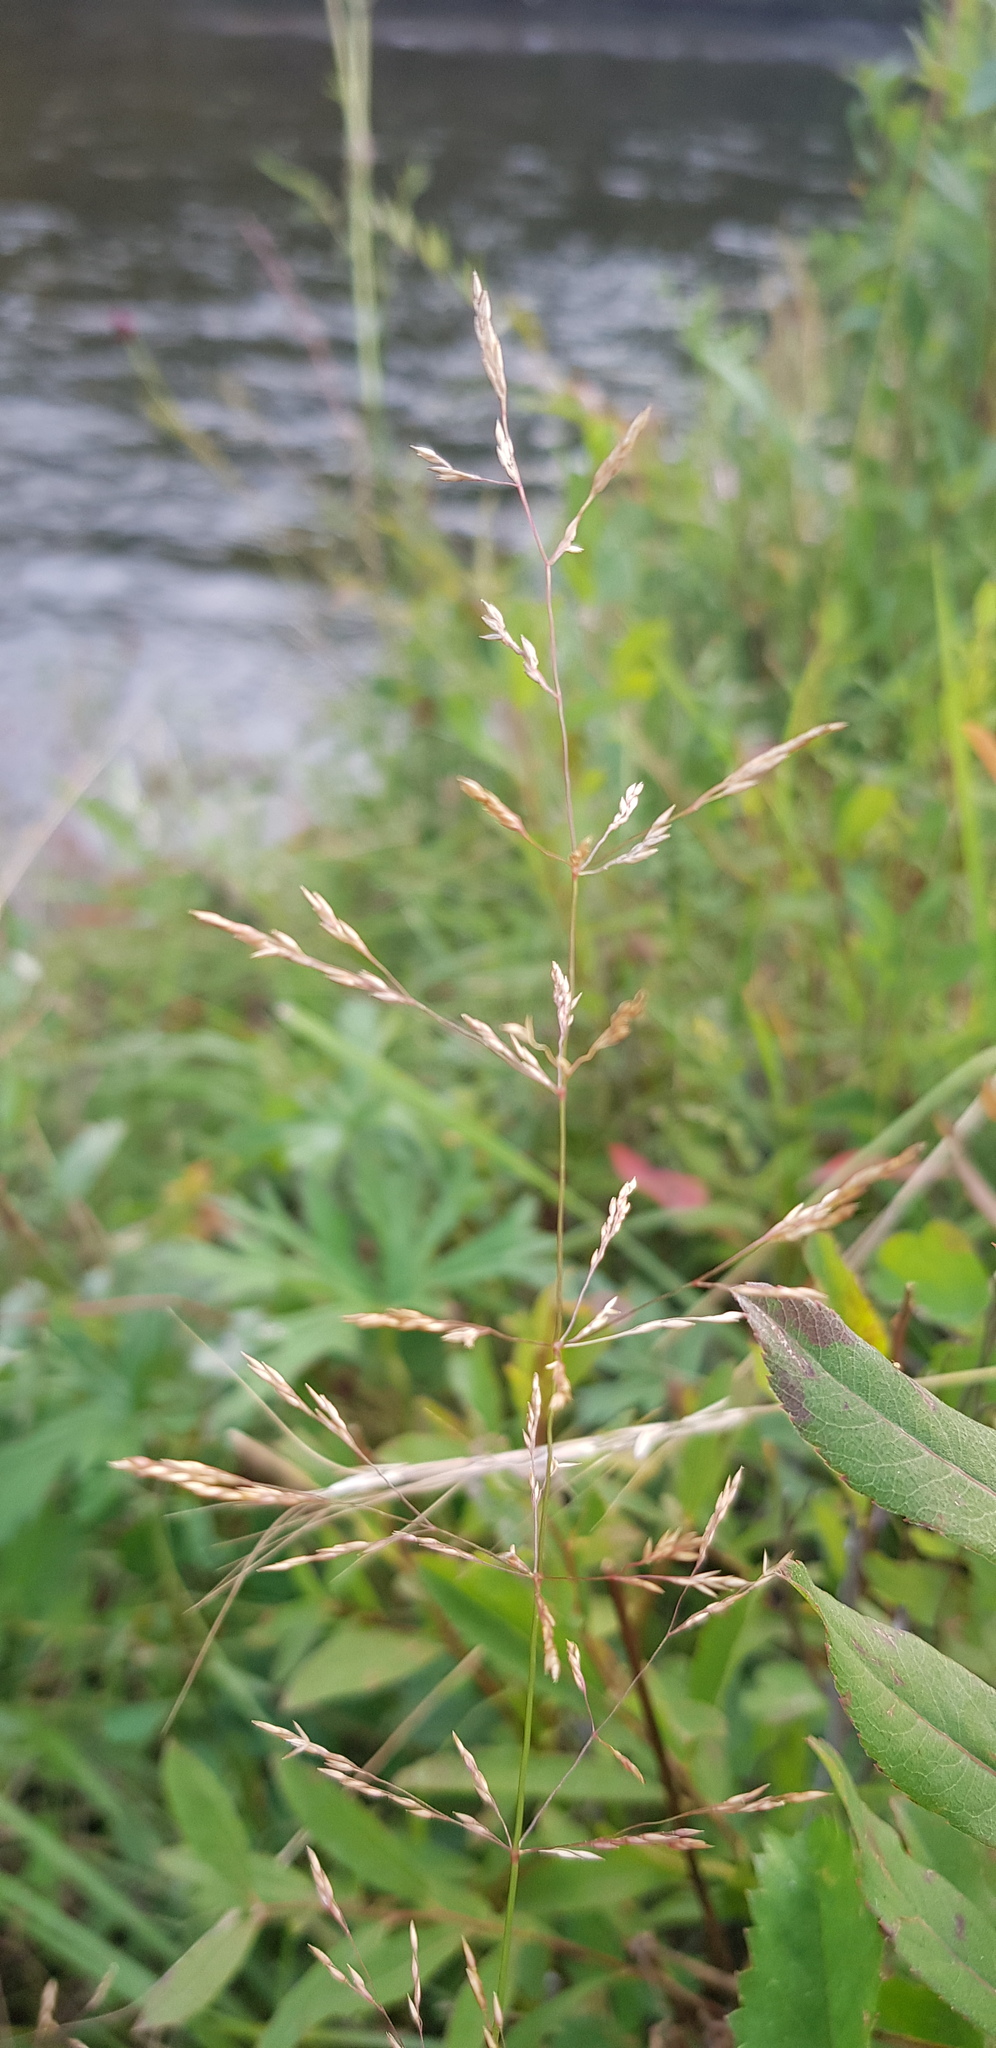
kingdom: Plantae
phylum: Tracheophyta
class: Liliopsida
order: Poales
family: Poaceae
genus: Puccinellia
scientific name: Puccinellia distans
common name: Weeping alkaligrass
